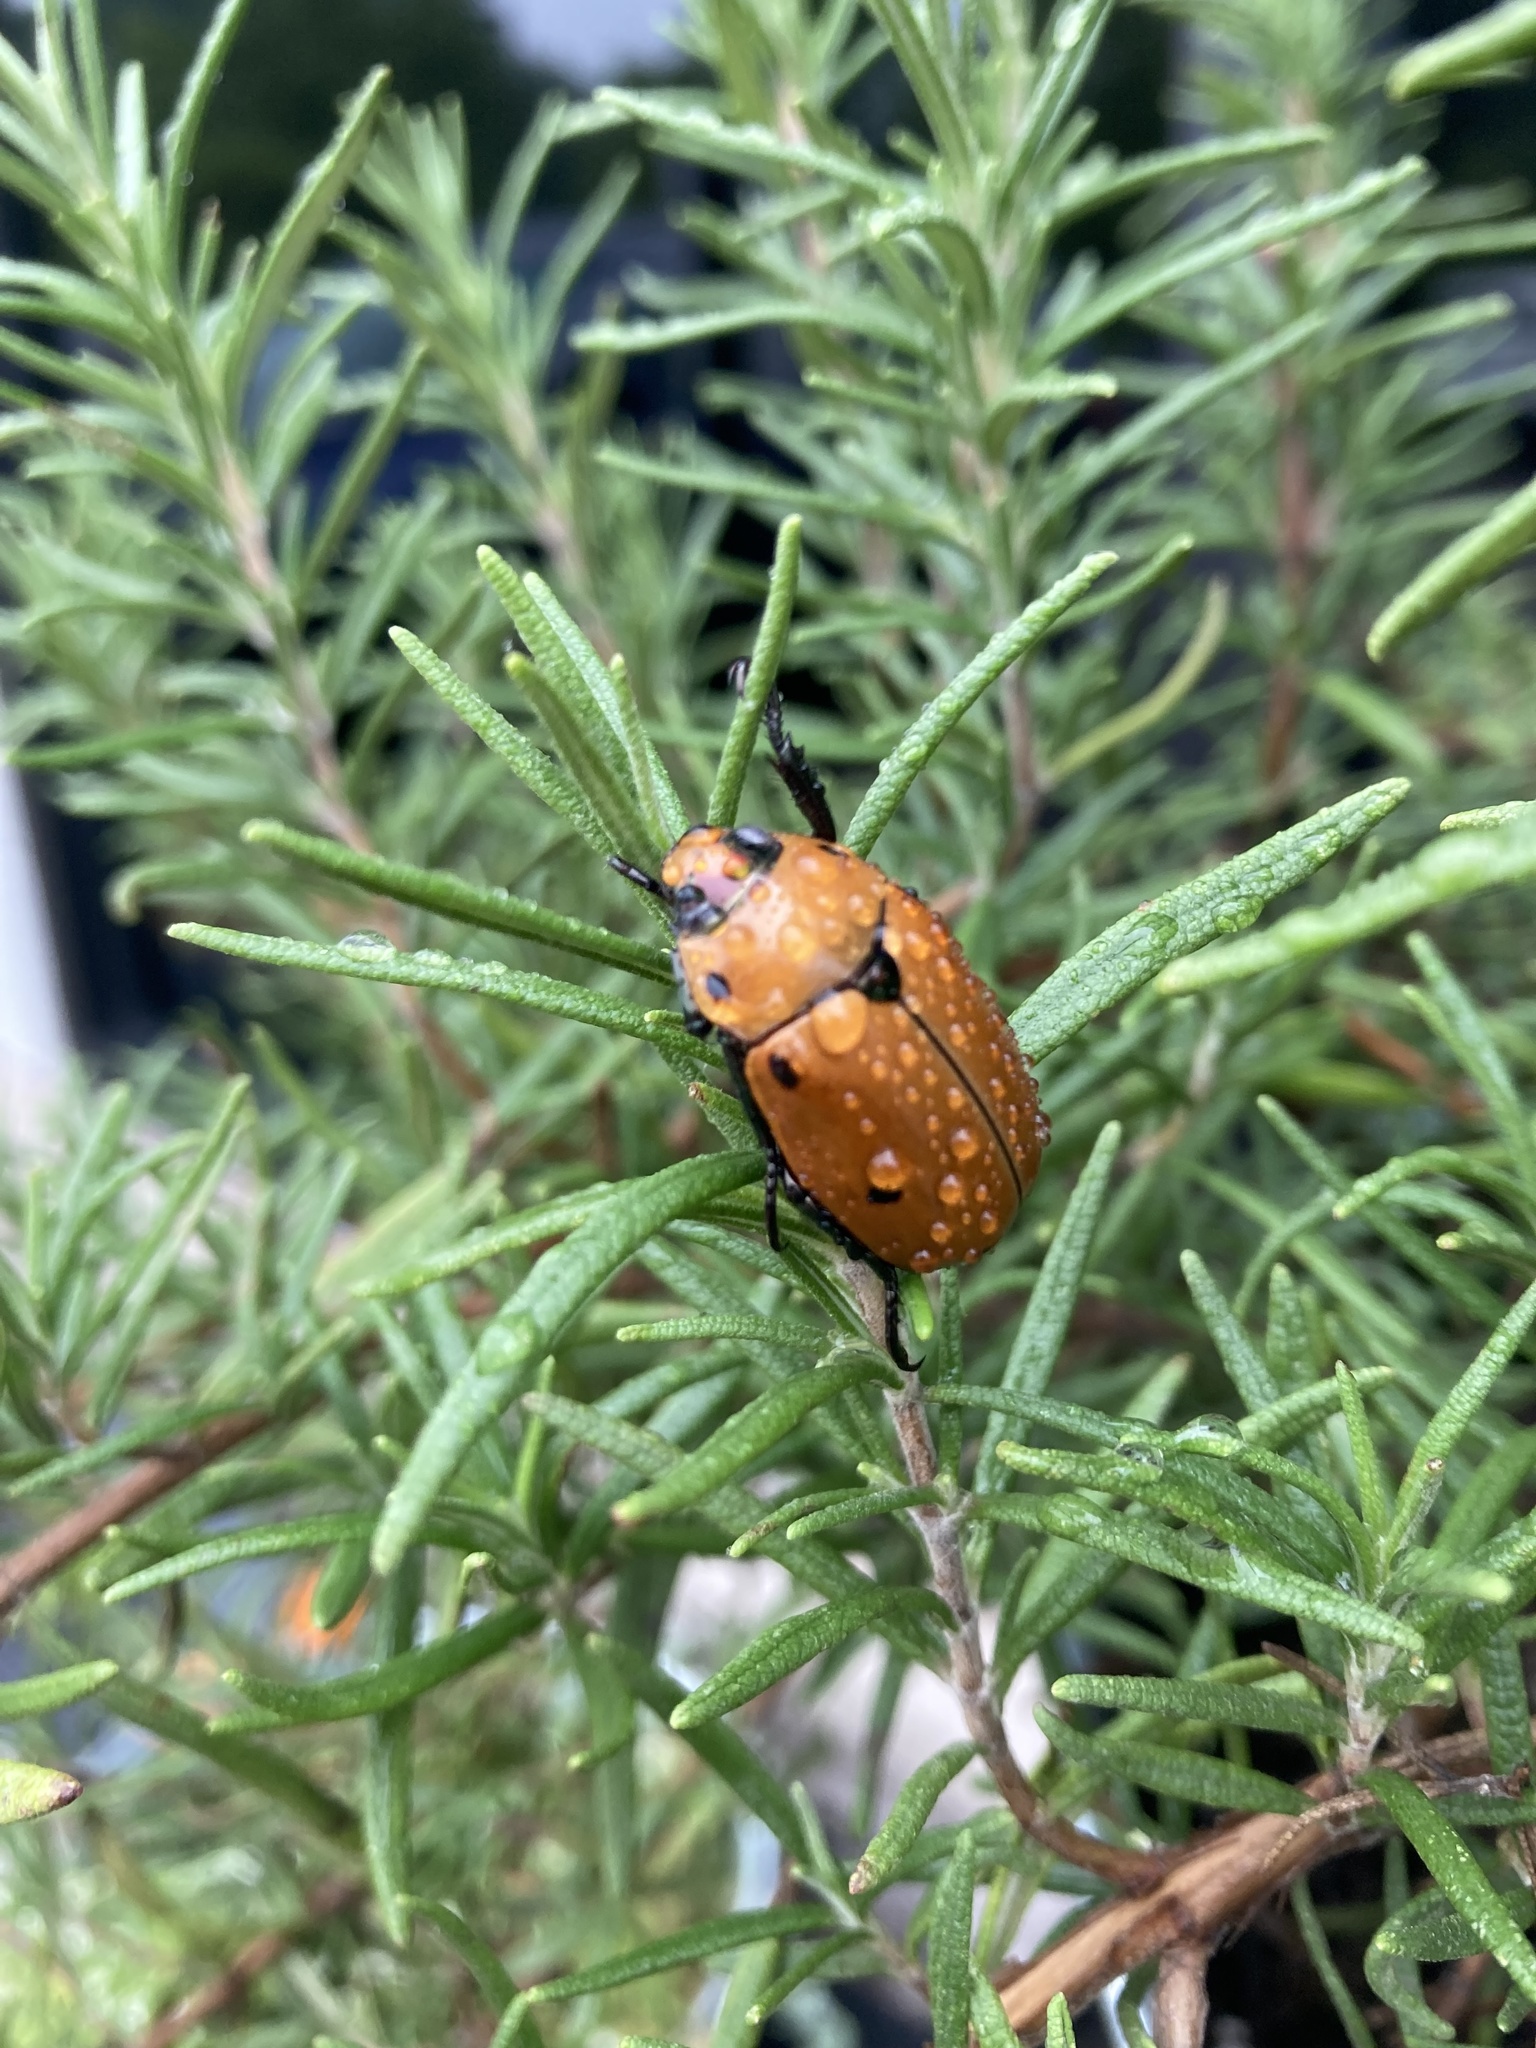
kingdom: Animalia
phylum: Arthropoda
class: Insecta
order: Coleoptera
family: Scarabaeidae
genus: Pelidnota
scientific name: Pelidnota punctata
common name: Grapevine beetle
